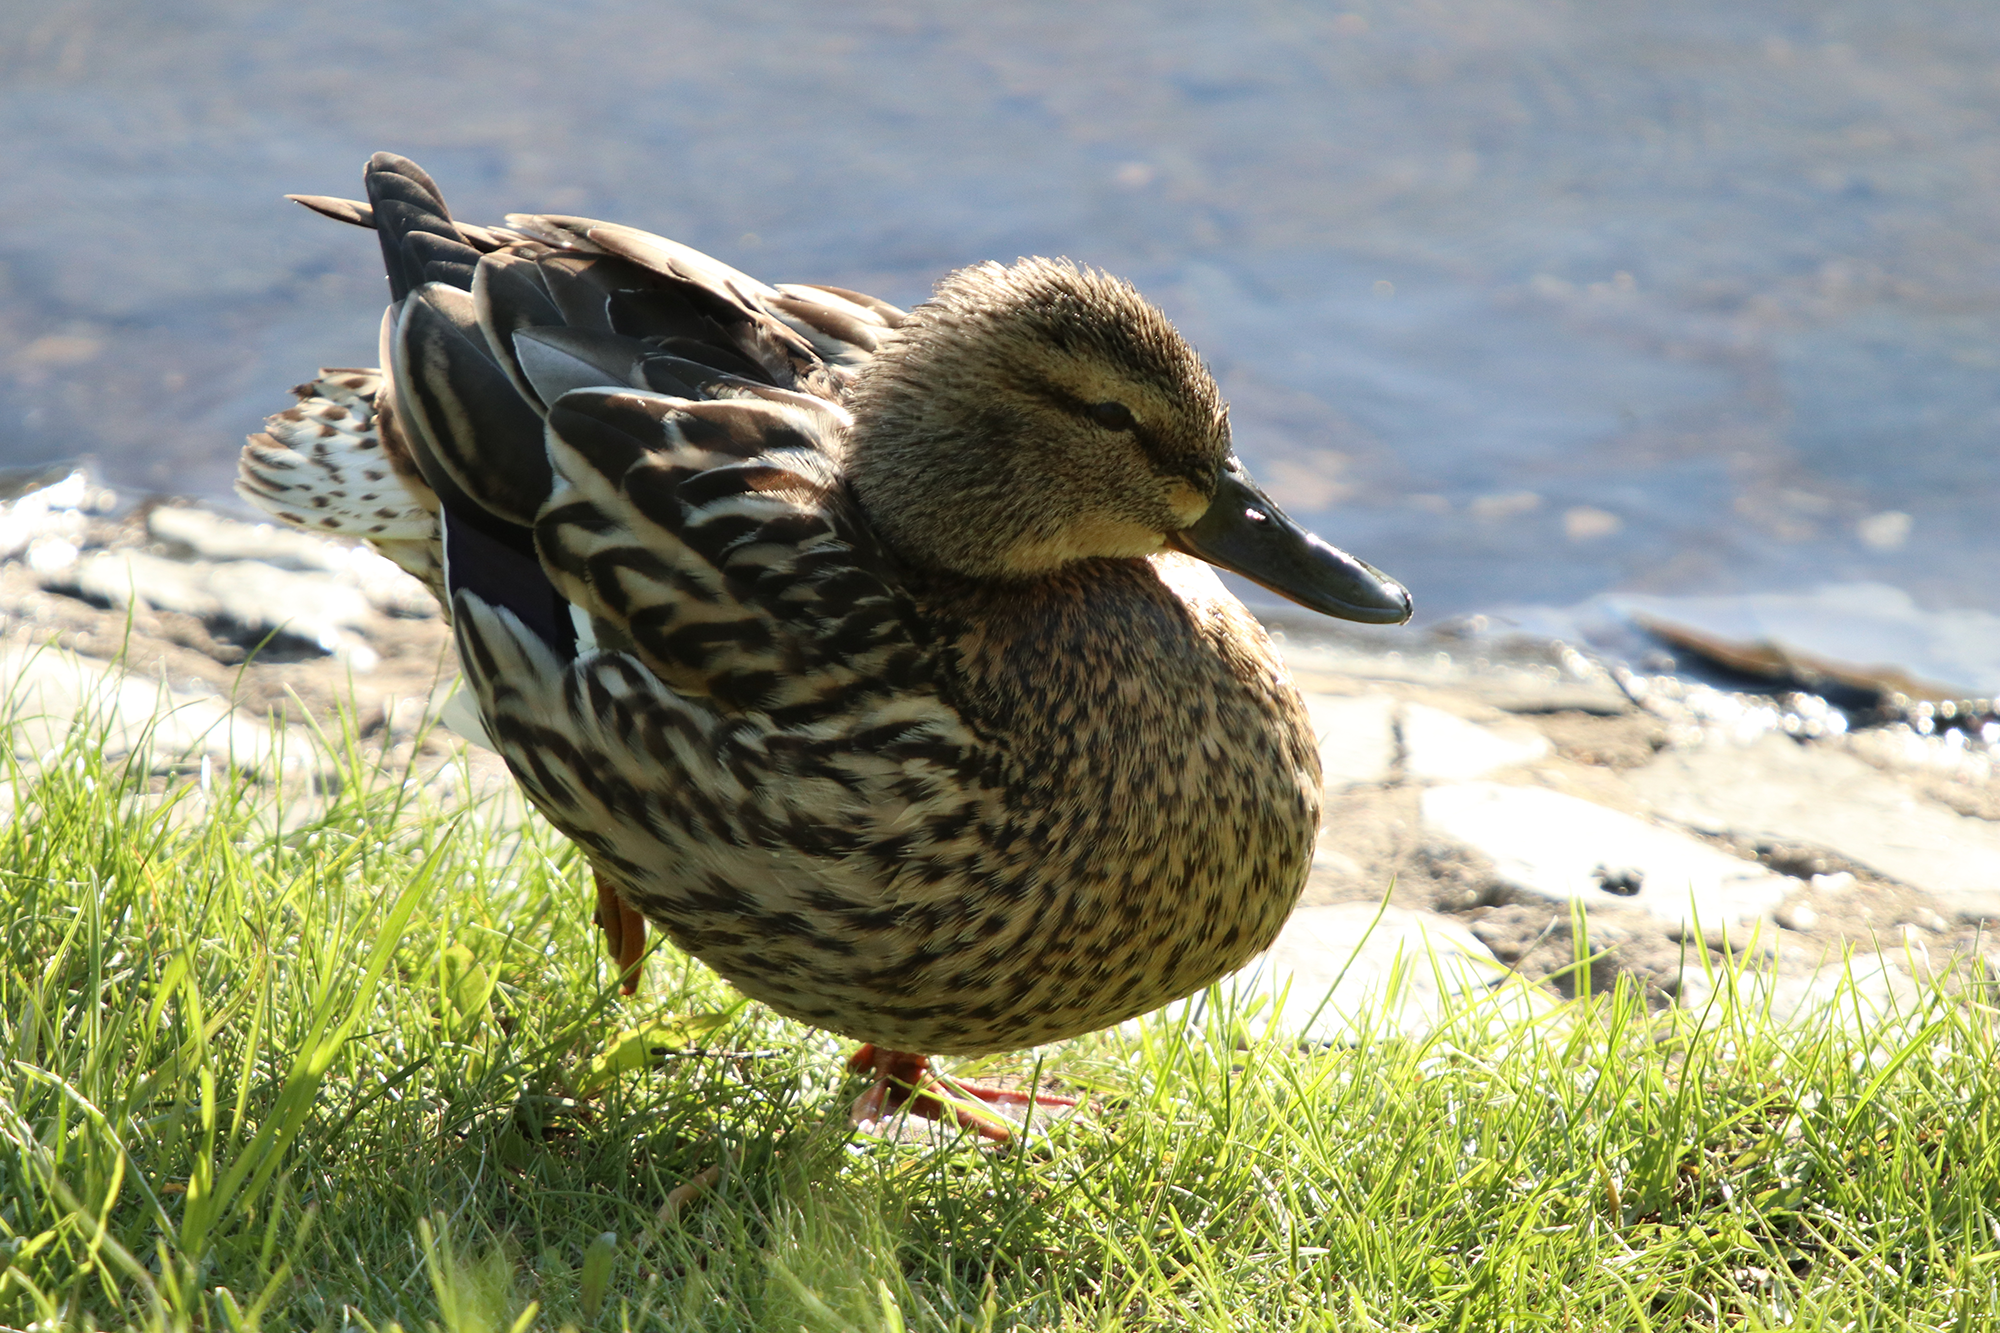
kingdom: Animalia
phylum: Chordata
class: Aves
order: Anseriformes
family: Anatidae
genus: Anas
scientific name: Anas platyrhynchos
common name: Mallard
